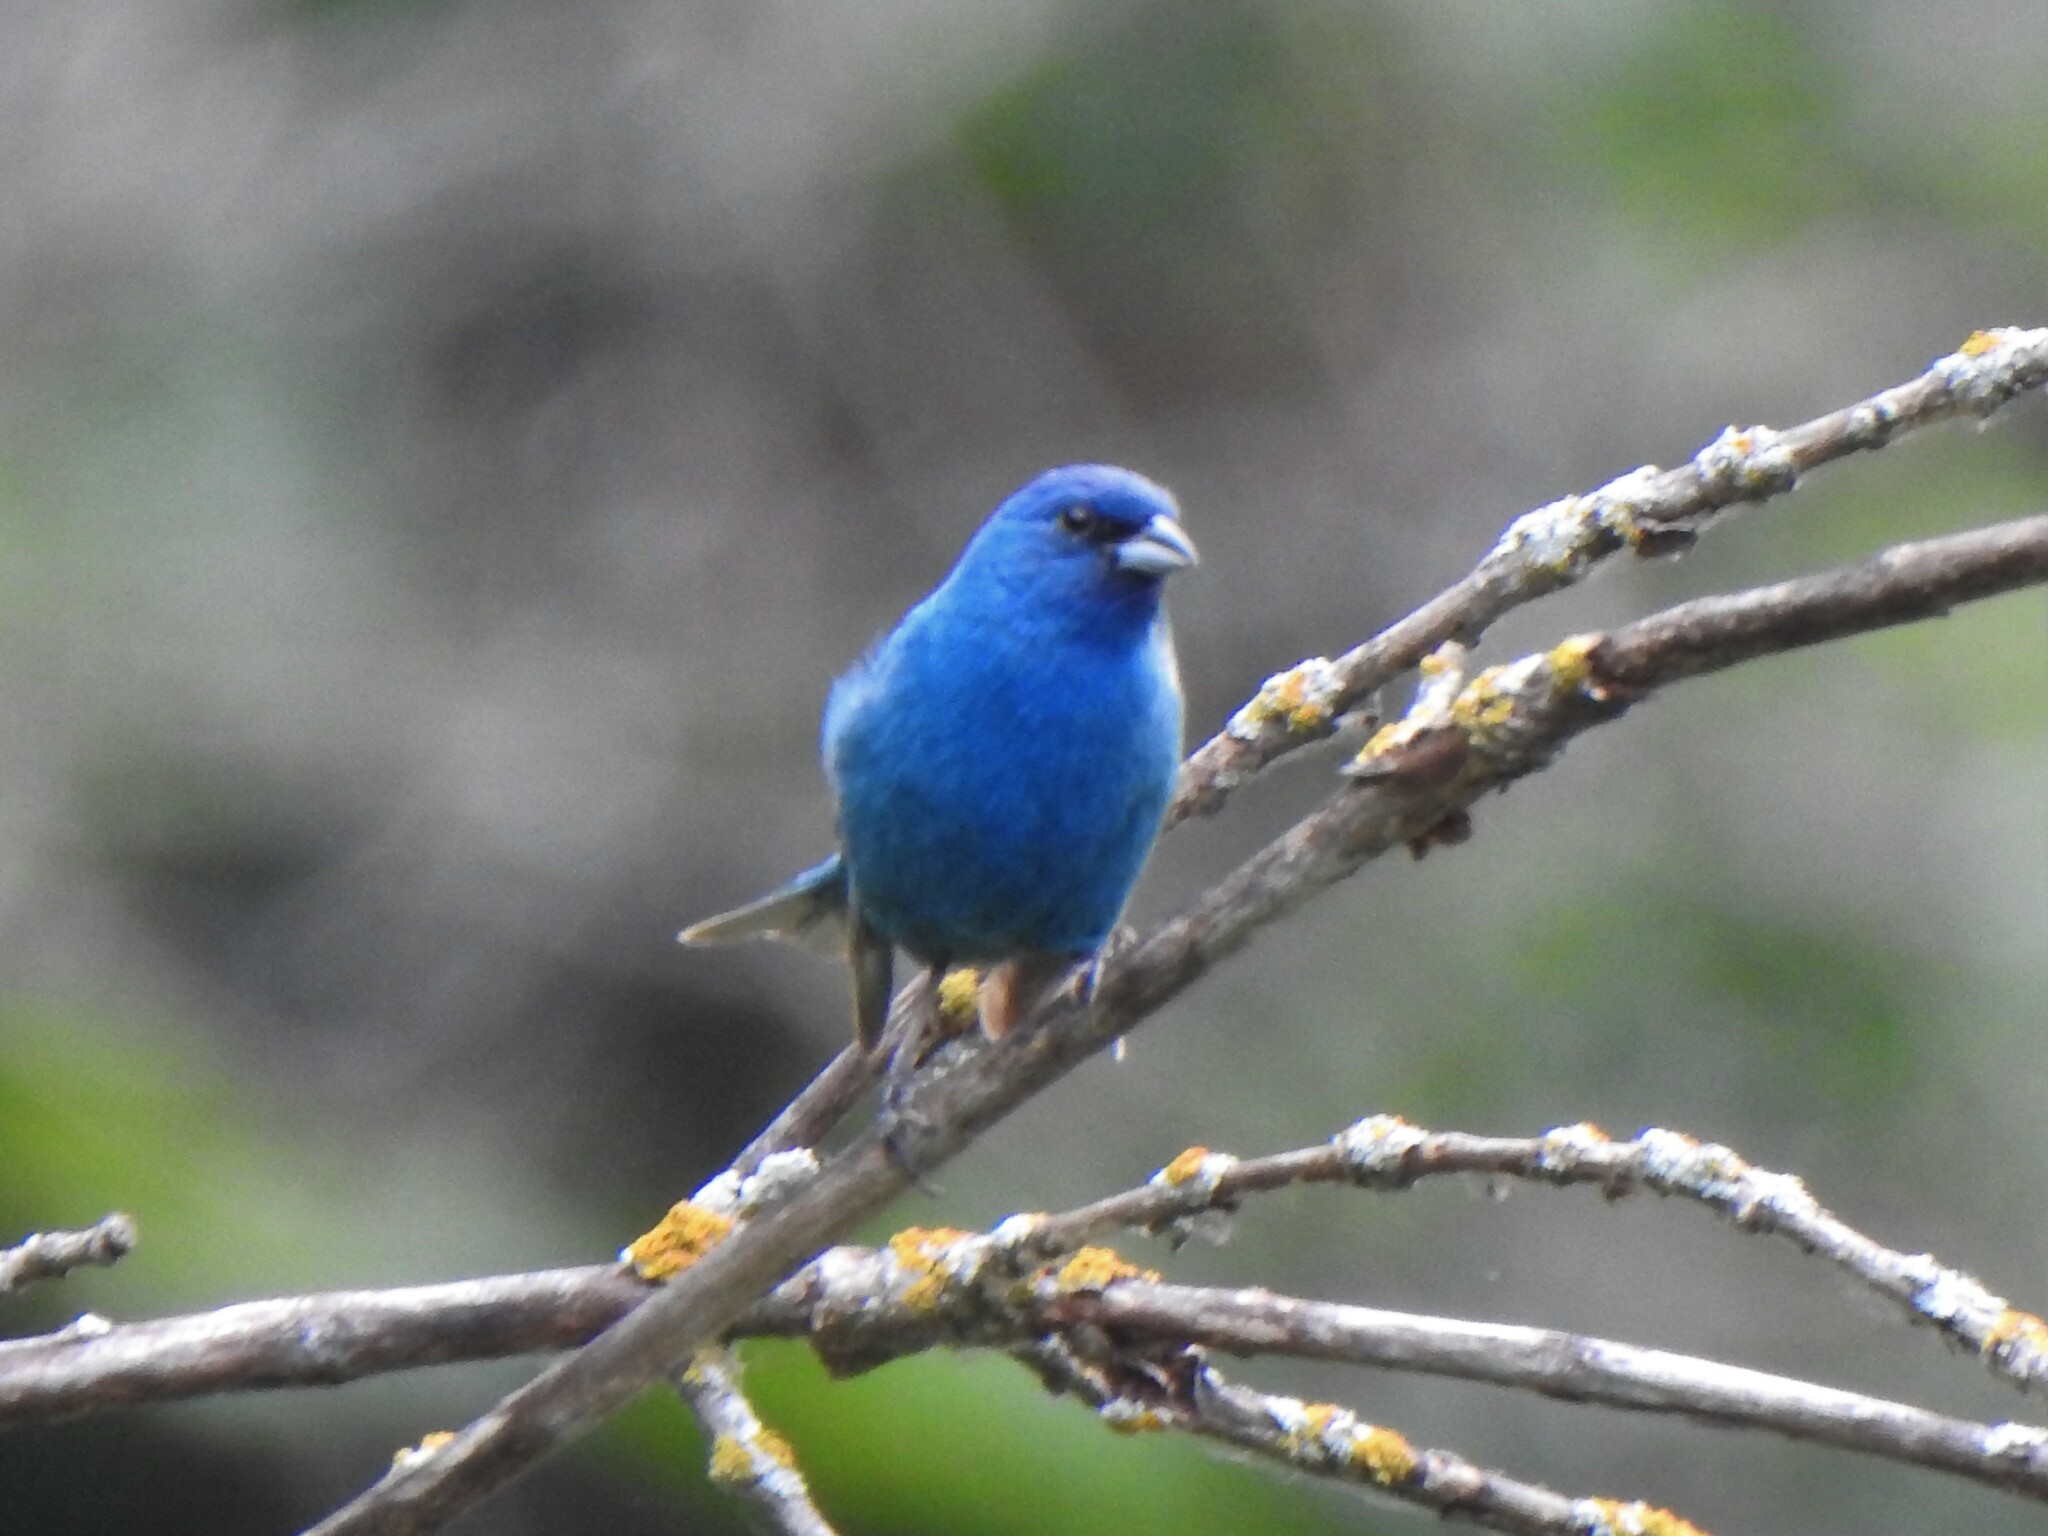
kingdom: Animalia
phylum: Chordata
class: Aves
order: Passeriformes
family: Cardinalidae
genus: Passerina
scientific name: Passerina cyanea
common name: Indigo bunting
